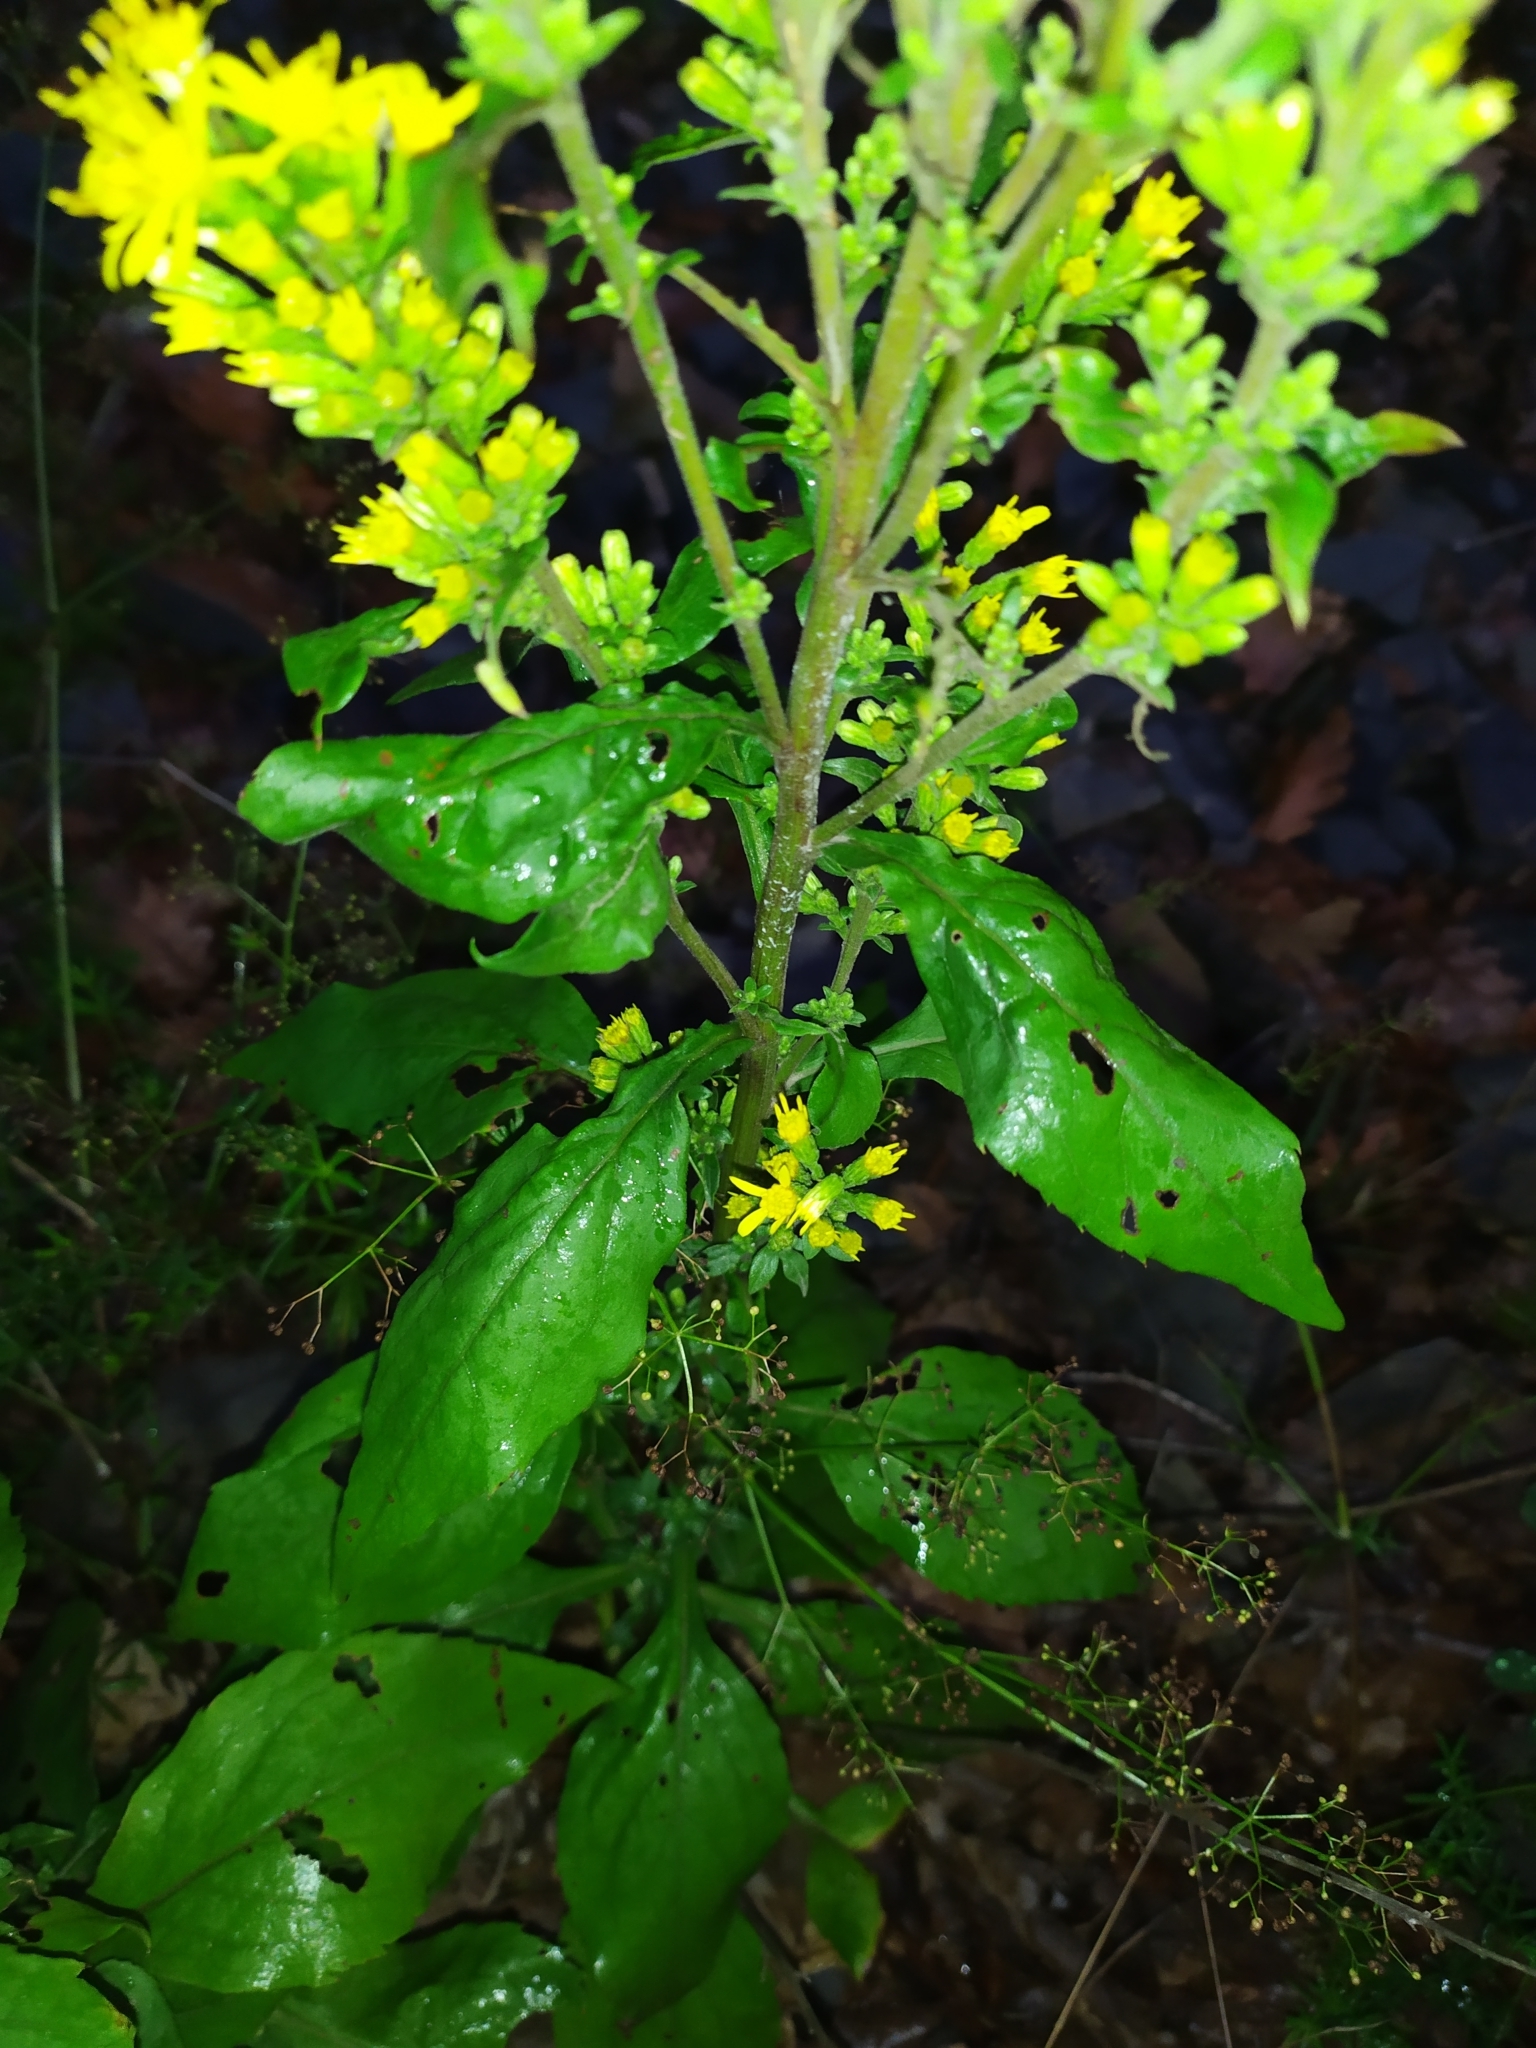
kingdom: Plantae
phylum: Tracheophyta
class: Magnoliopsida
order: Asterales
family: Asteraceae
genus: Solidago
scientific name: Solidago virgaurea
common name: Goldenrod
